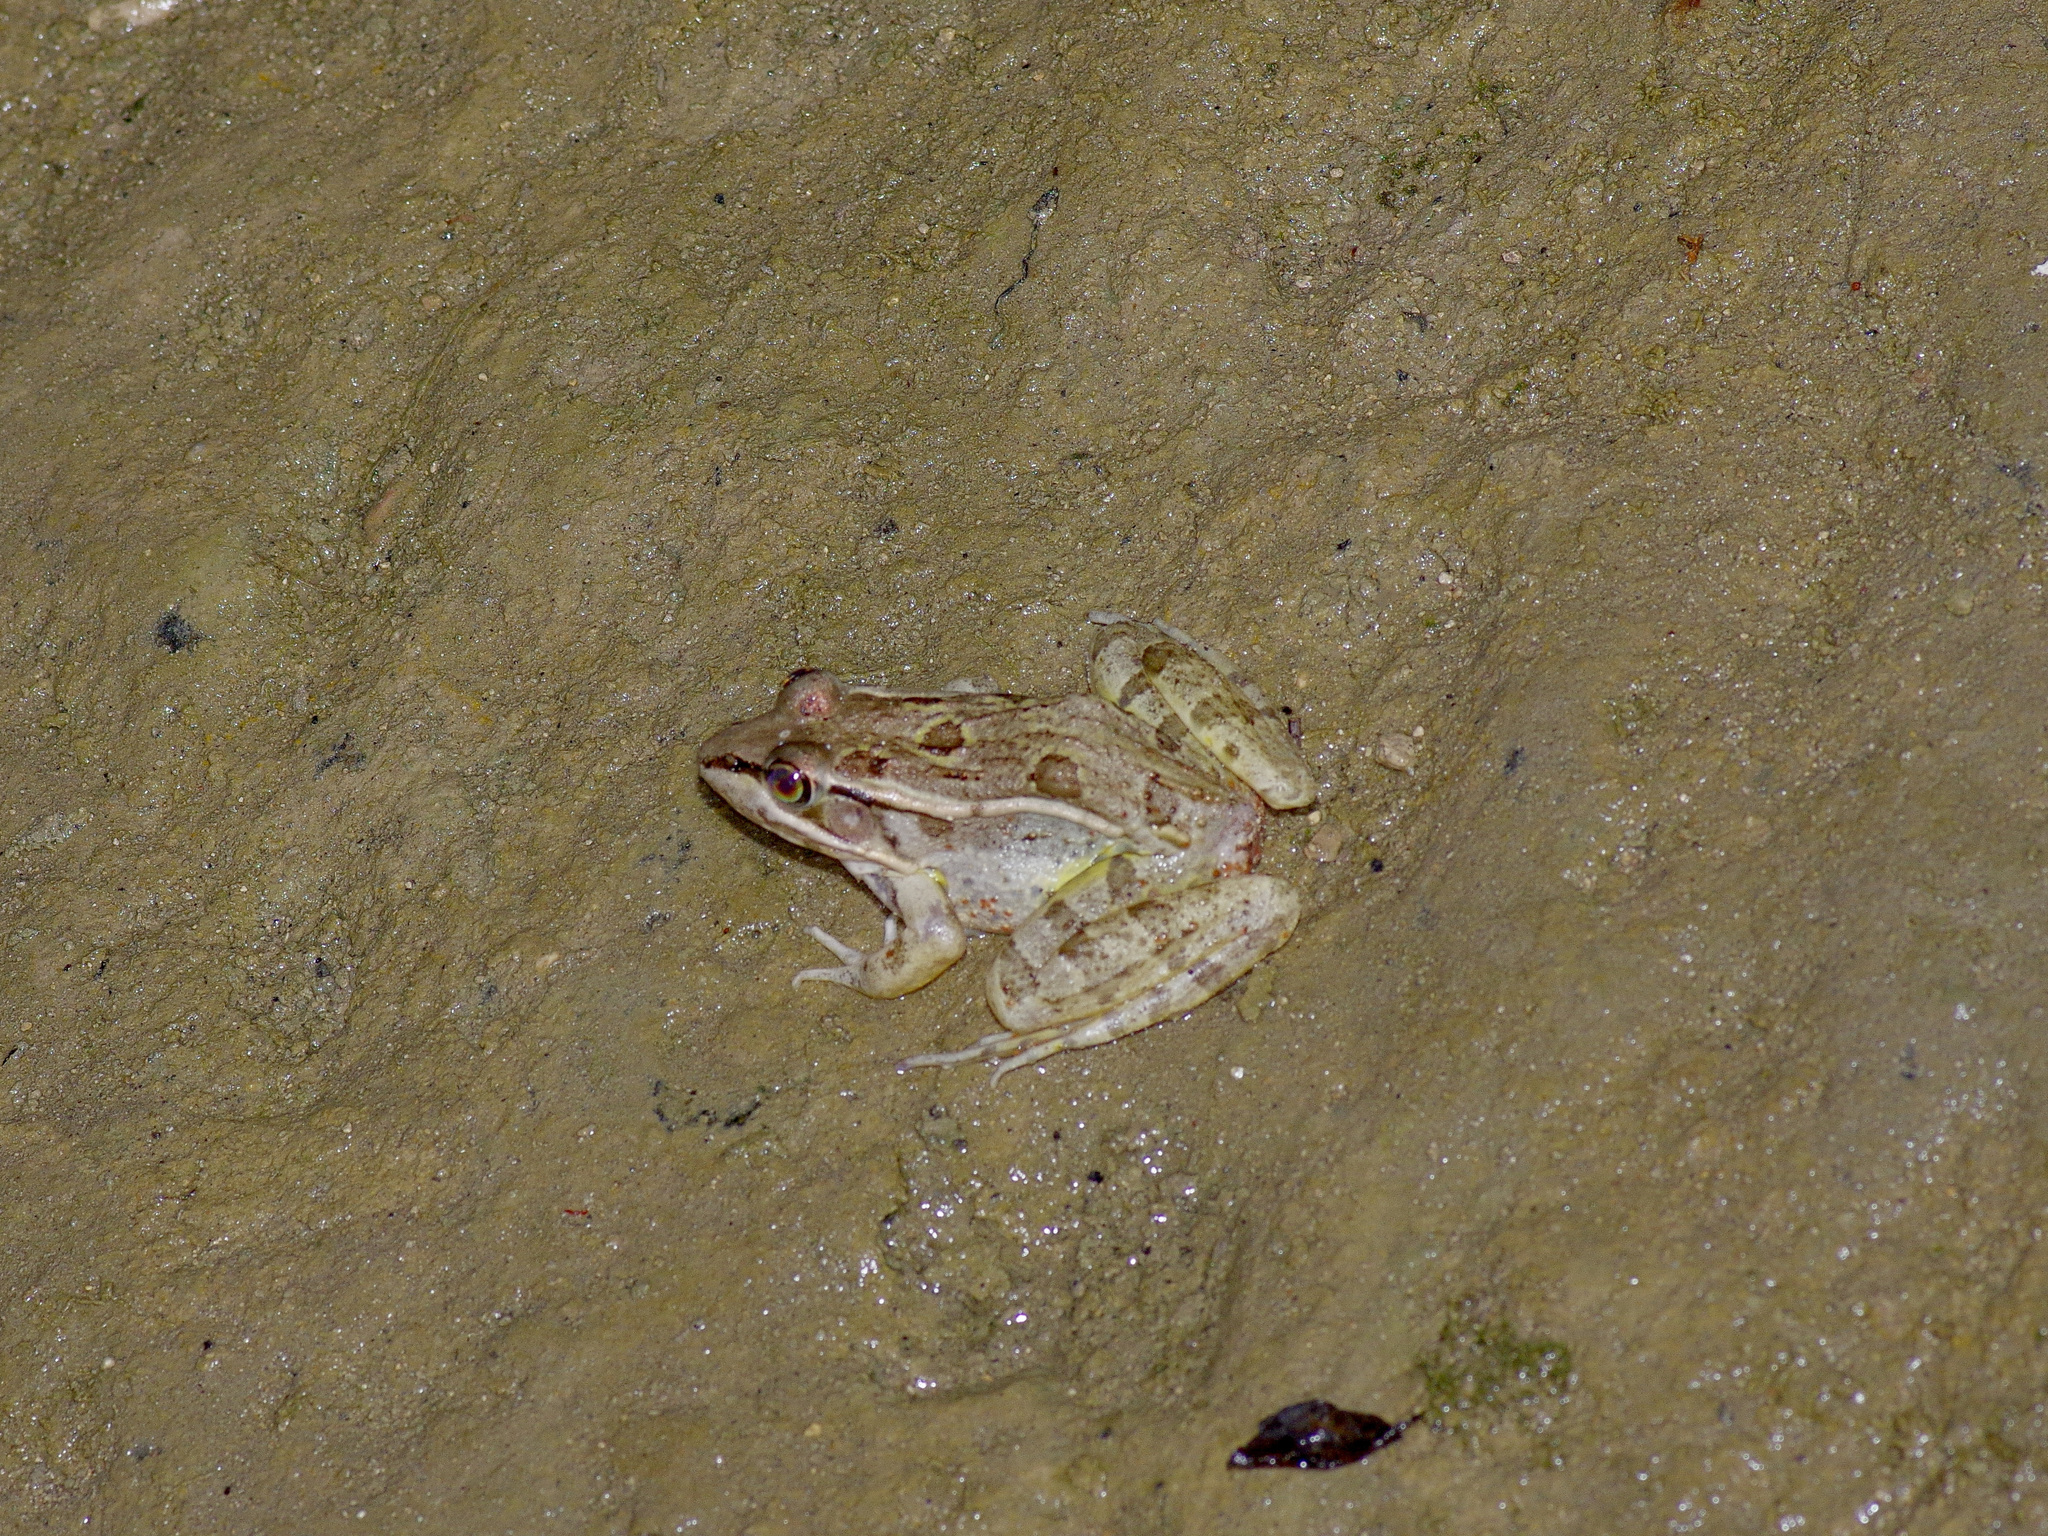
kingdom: Animalia
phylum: Chordata
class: Amphibia
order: Anura
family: Ranidae
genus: Lithobates
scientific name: Lithobates berlandieri
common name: Rio grande leopard frog
